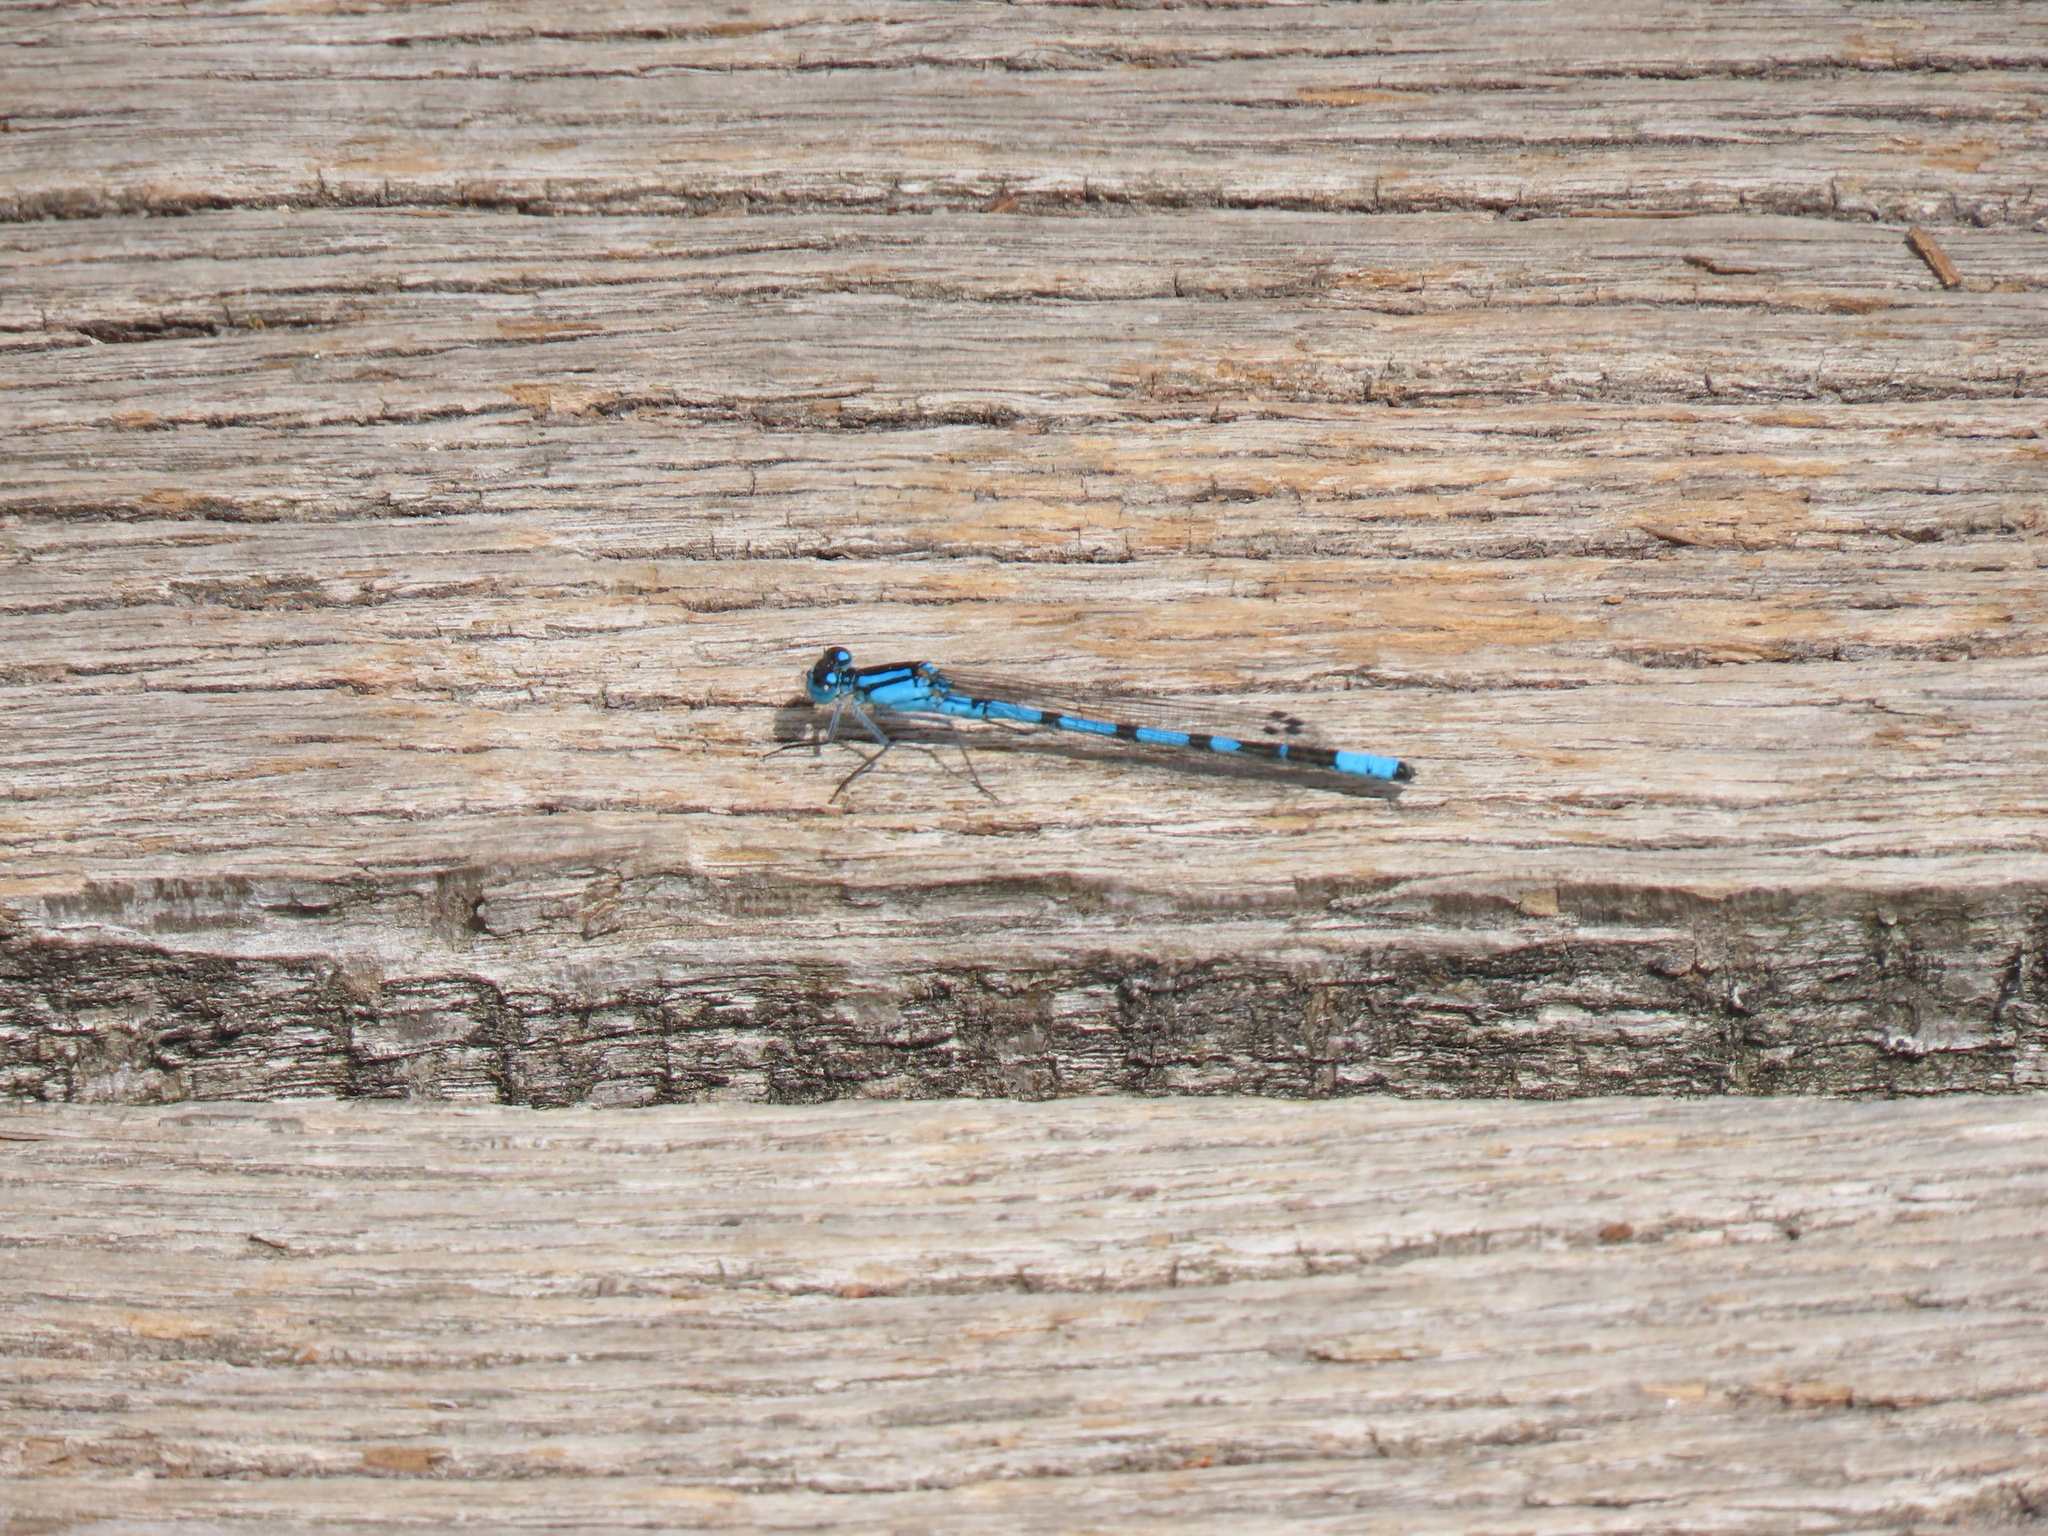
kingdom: Animalia
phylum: Arthropoda
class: Insecta
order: Odonata
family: Coenagrionidae
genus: Enallagma
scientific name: Enallagma cyathigerum
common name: Common blue damselfly
